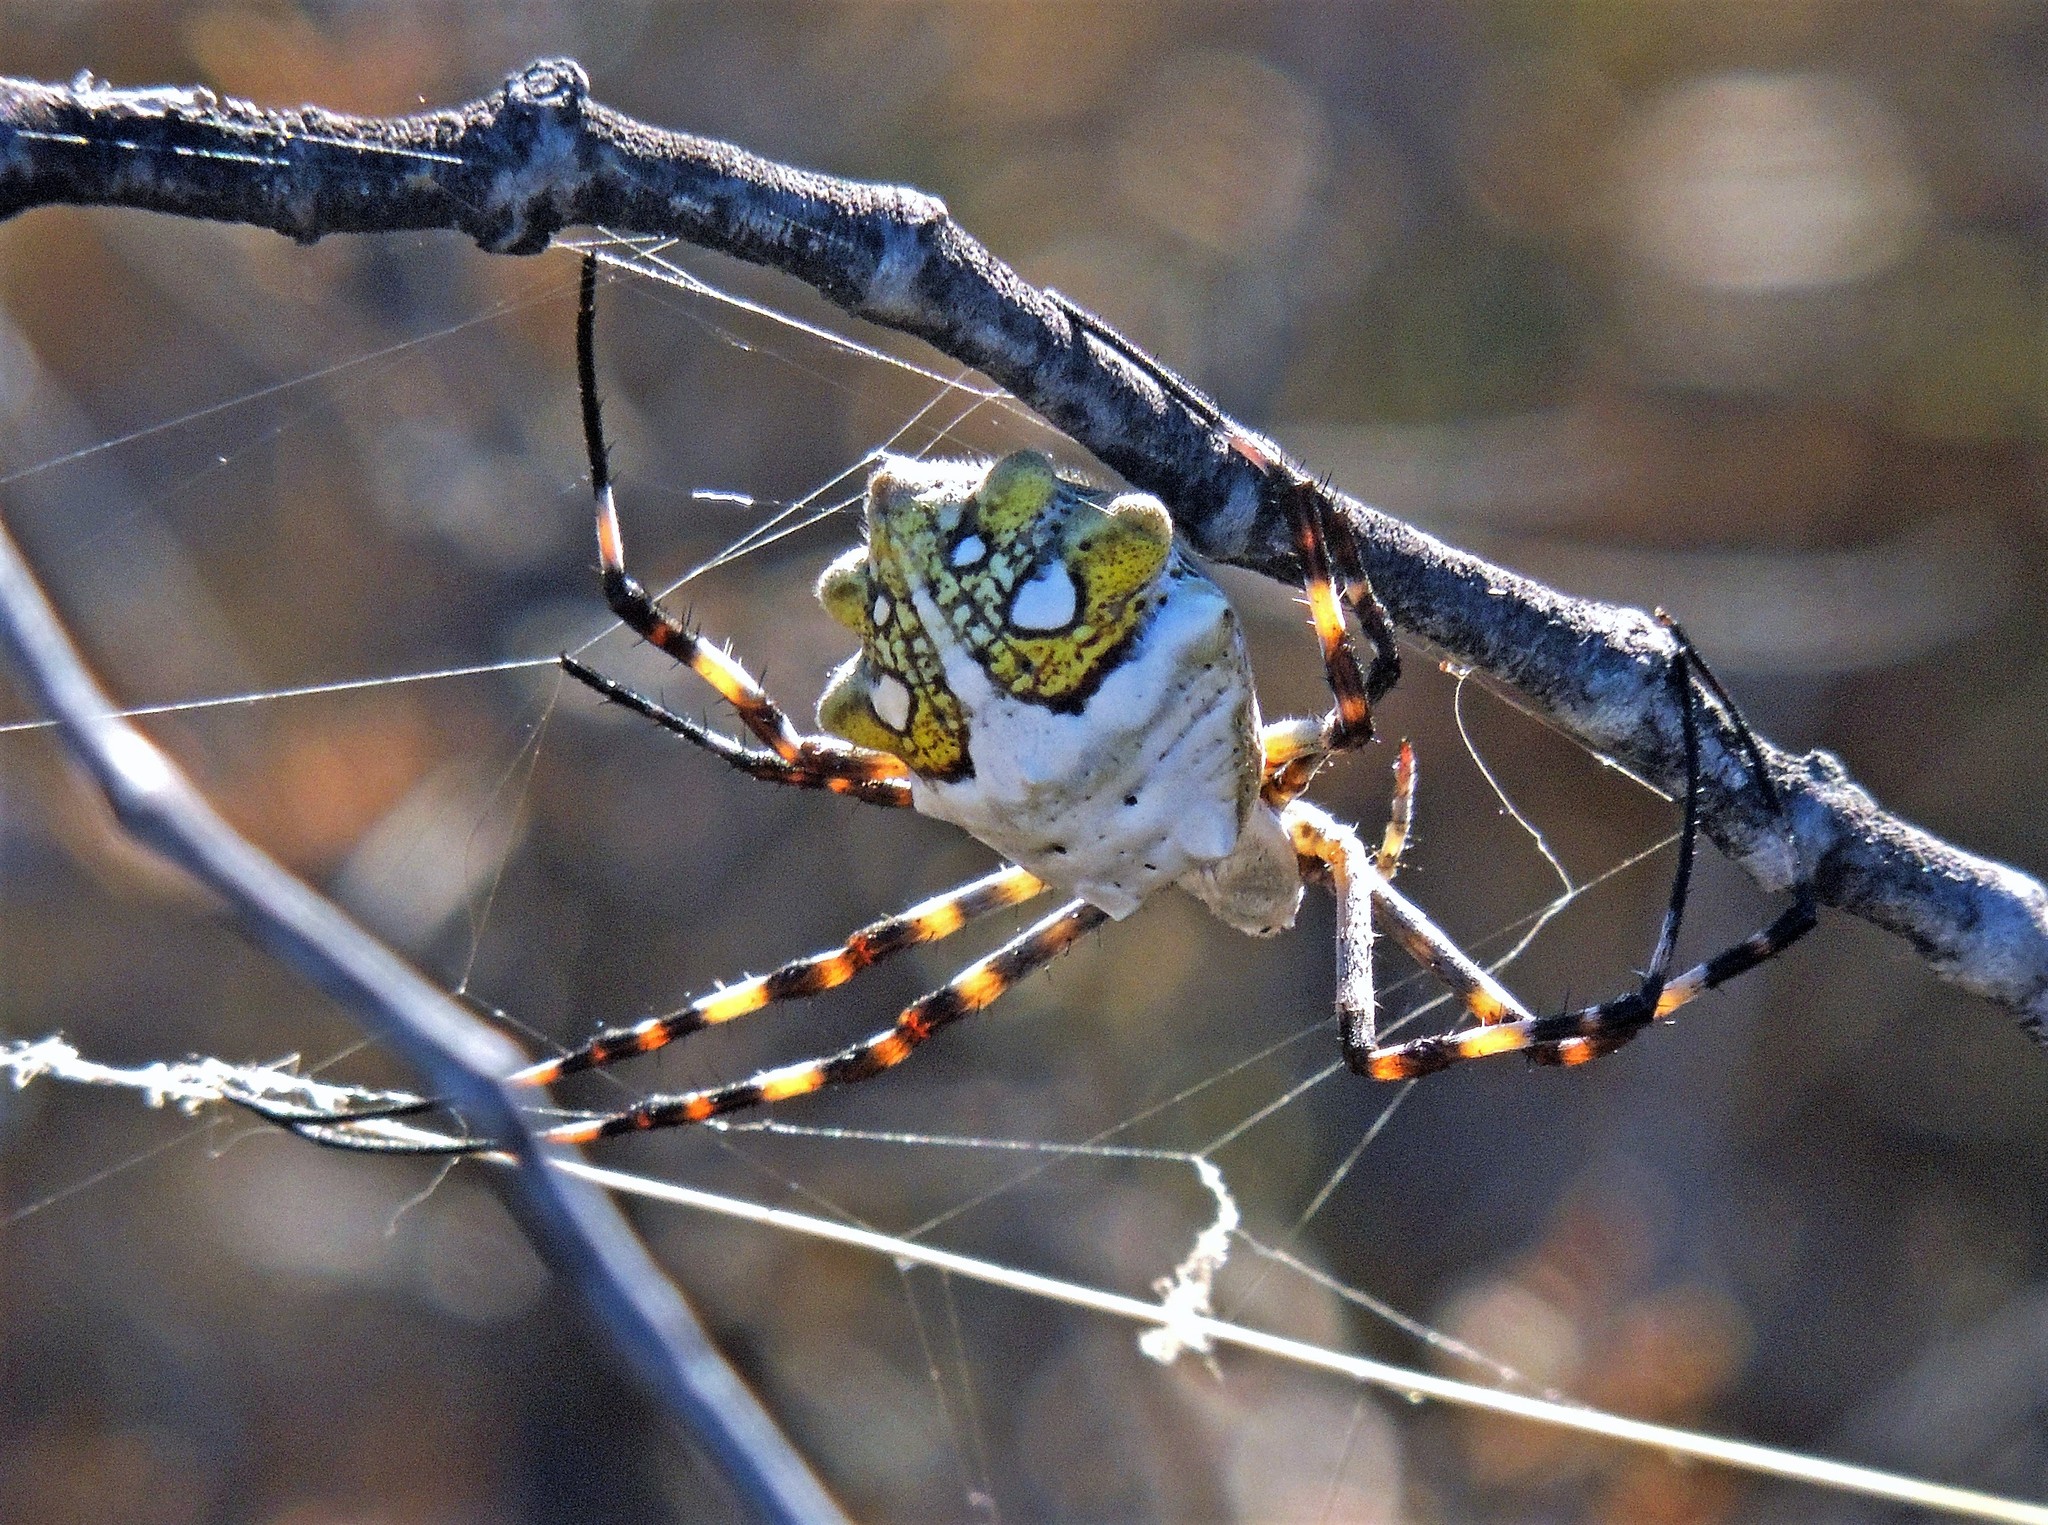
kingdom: Animalia
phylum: Arthropoda
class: Arachnida
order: Araneae
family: Araneidae
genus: Argiope
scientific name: Argiope argentata
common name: Orb weavers
